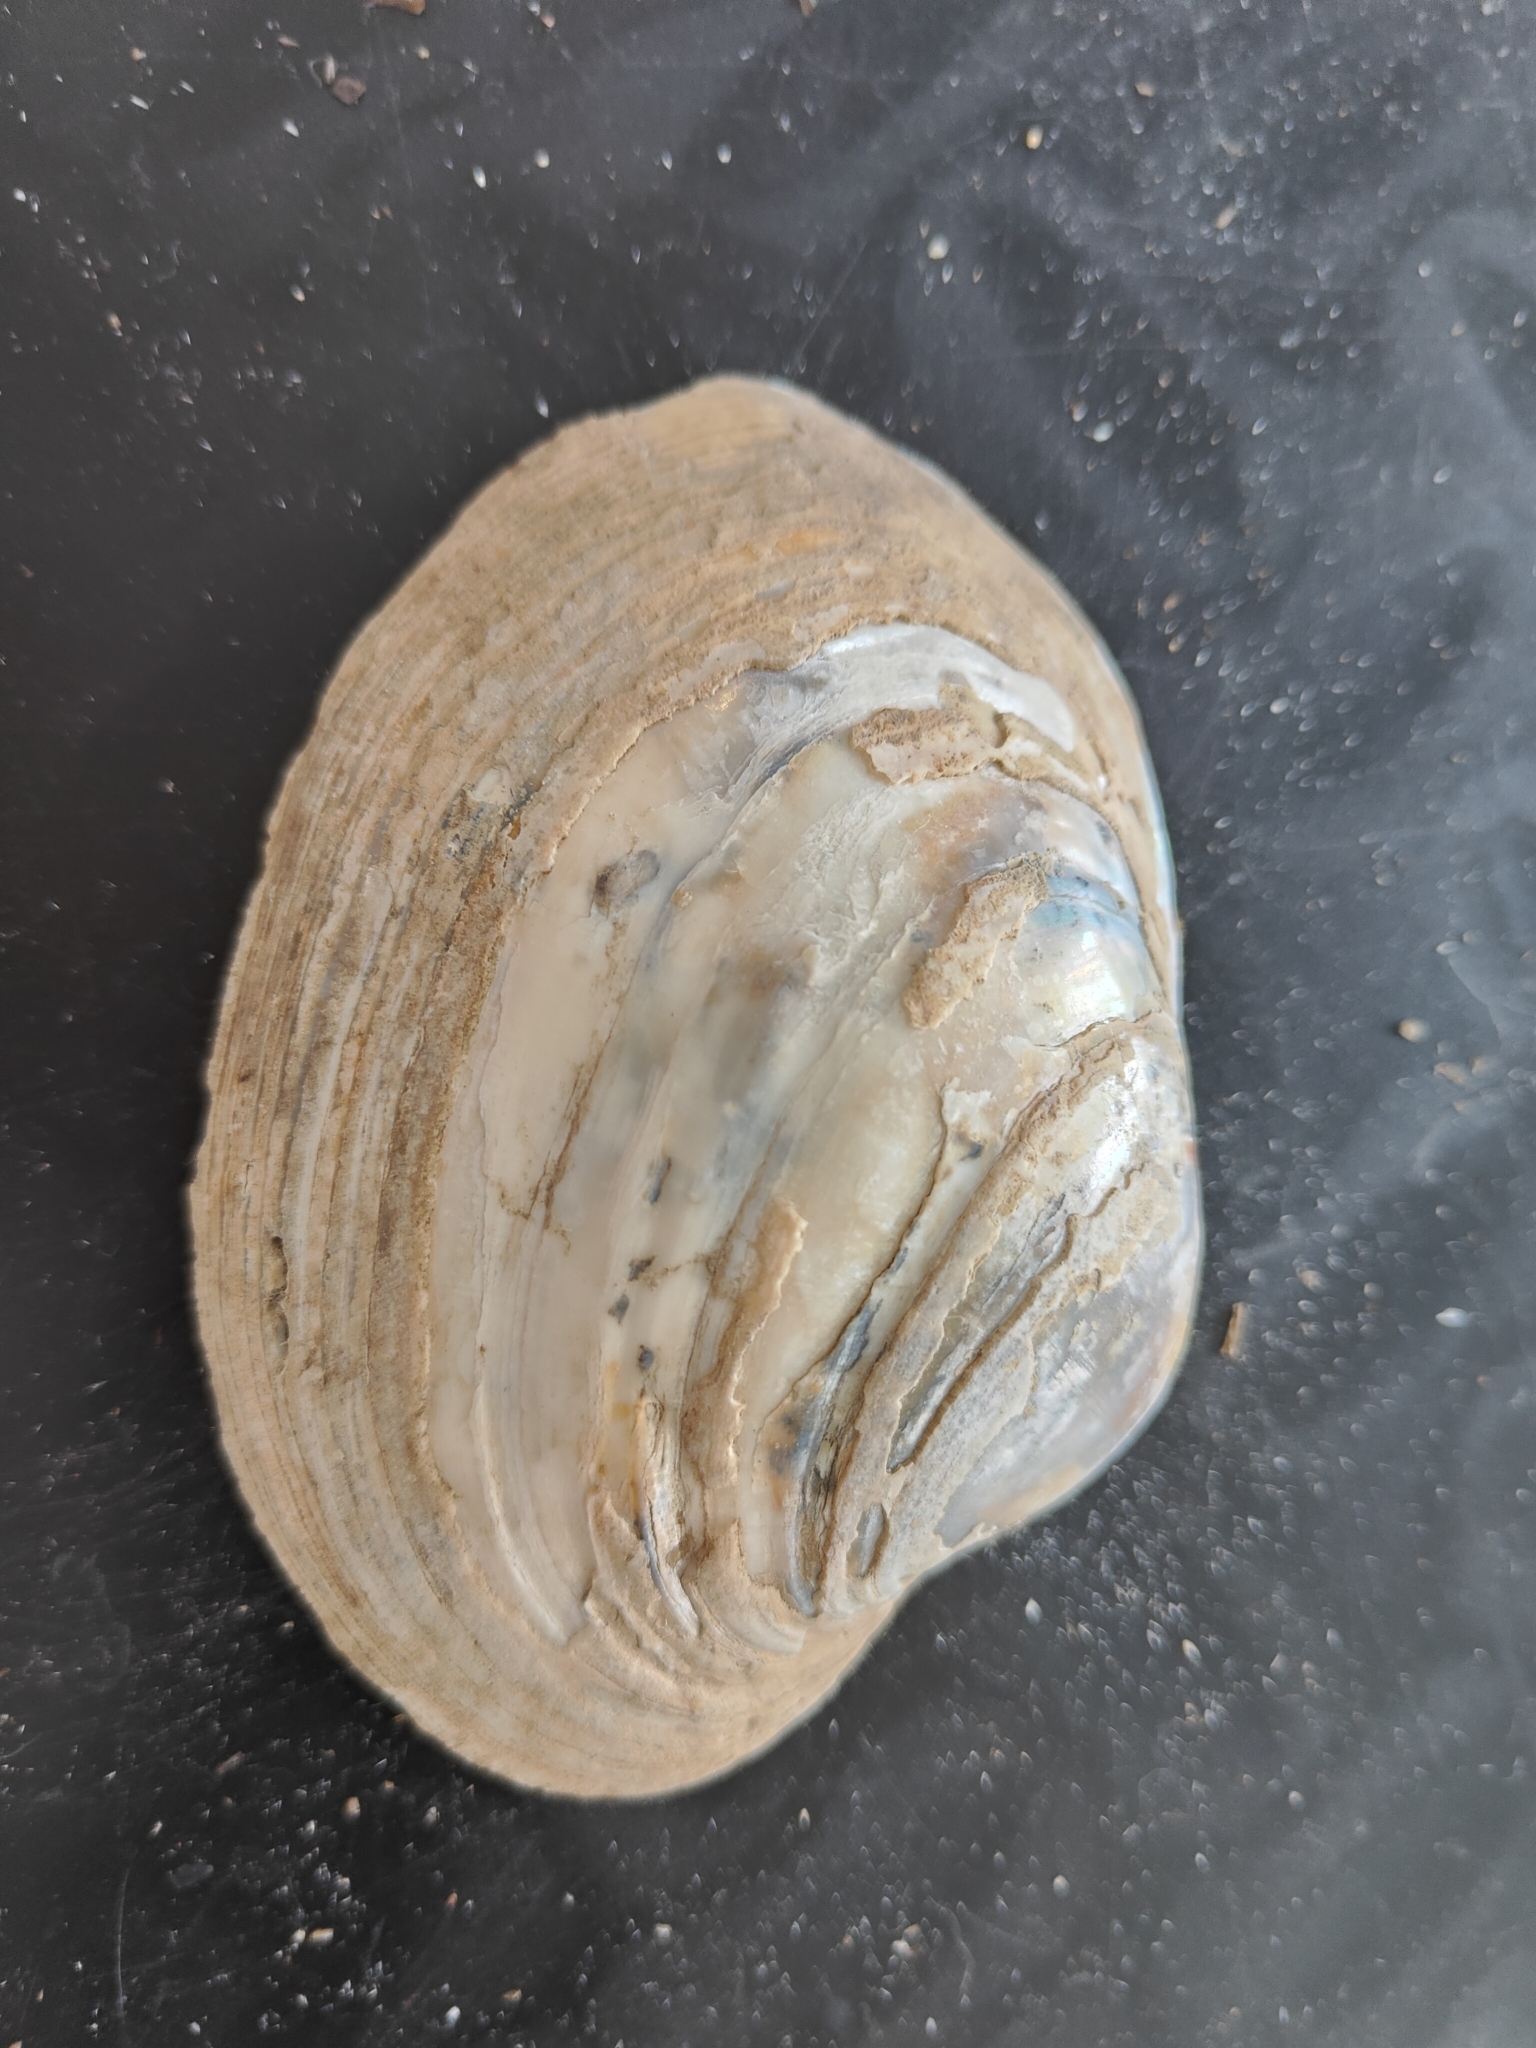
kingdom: Animalia
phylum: Mollusca
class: Bivalvia
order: Unionida
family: Unionidae
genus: Lampsilis
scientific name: Lampsilis cardium
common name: Plain pocketbook
